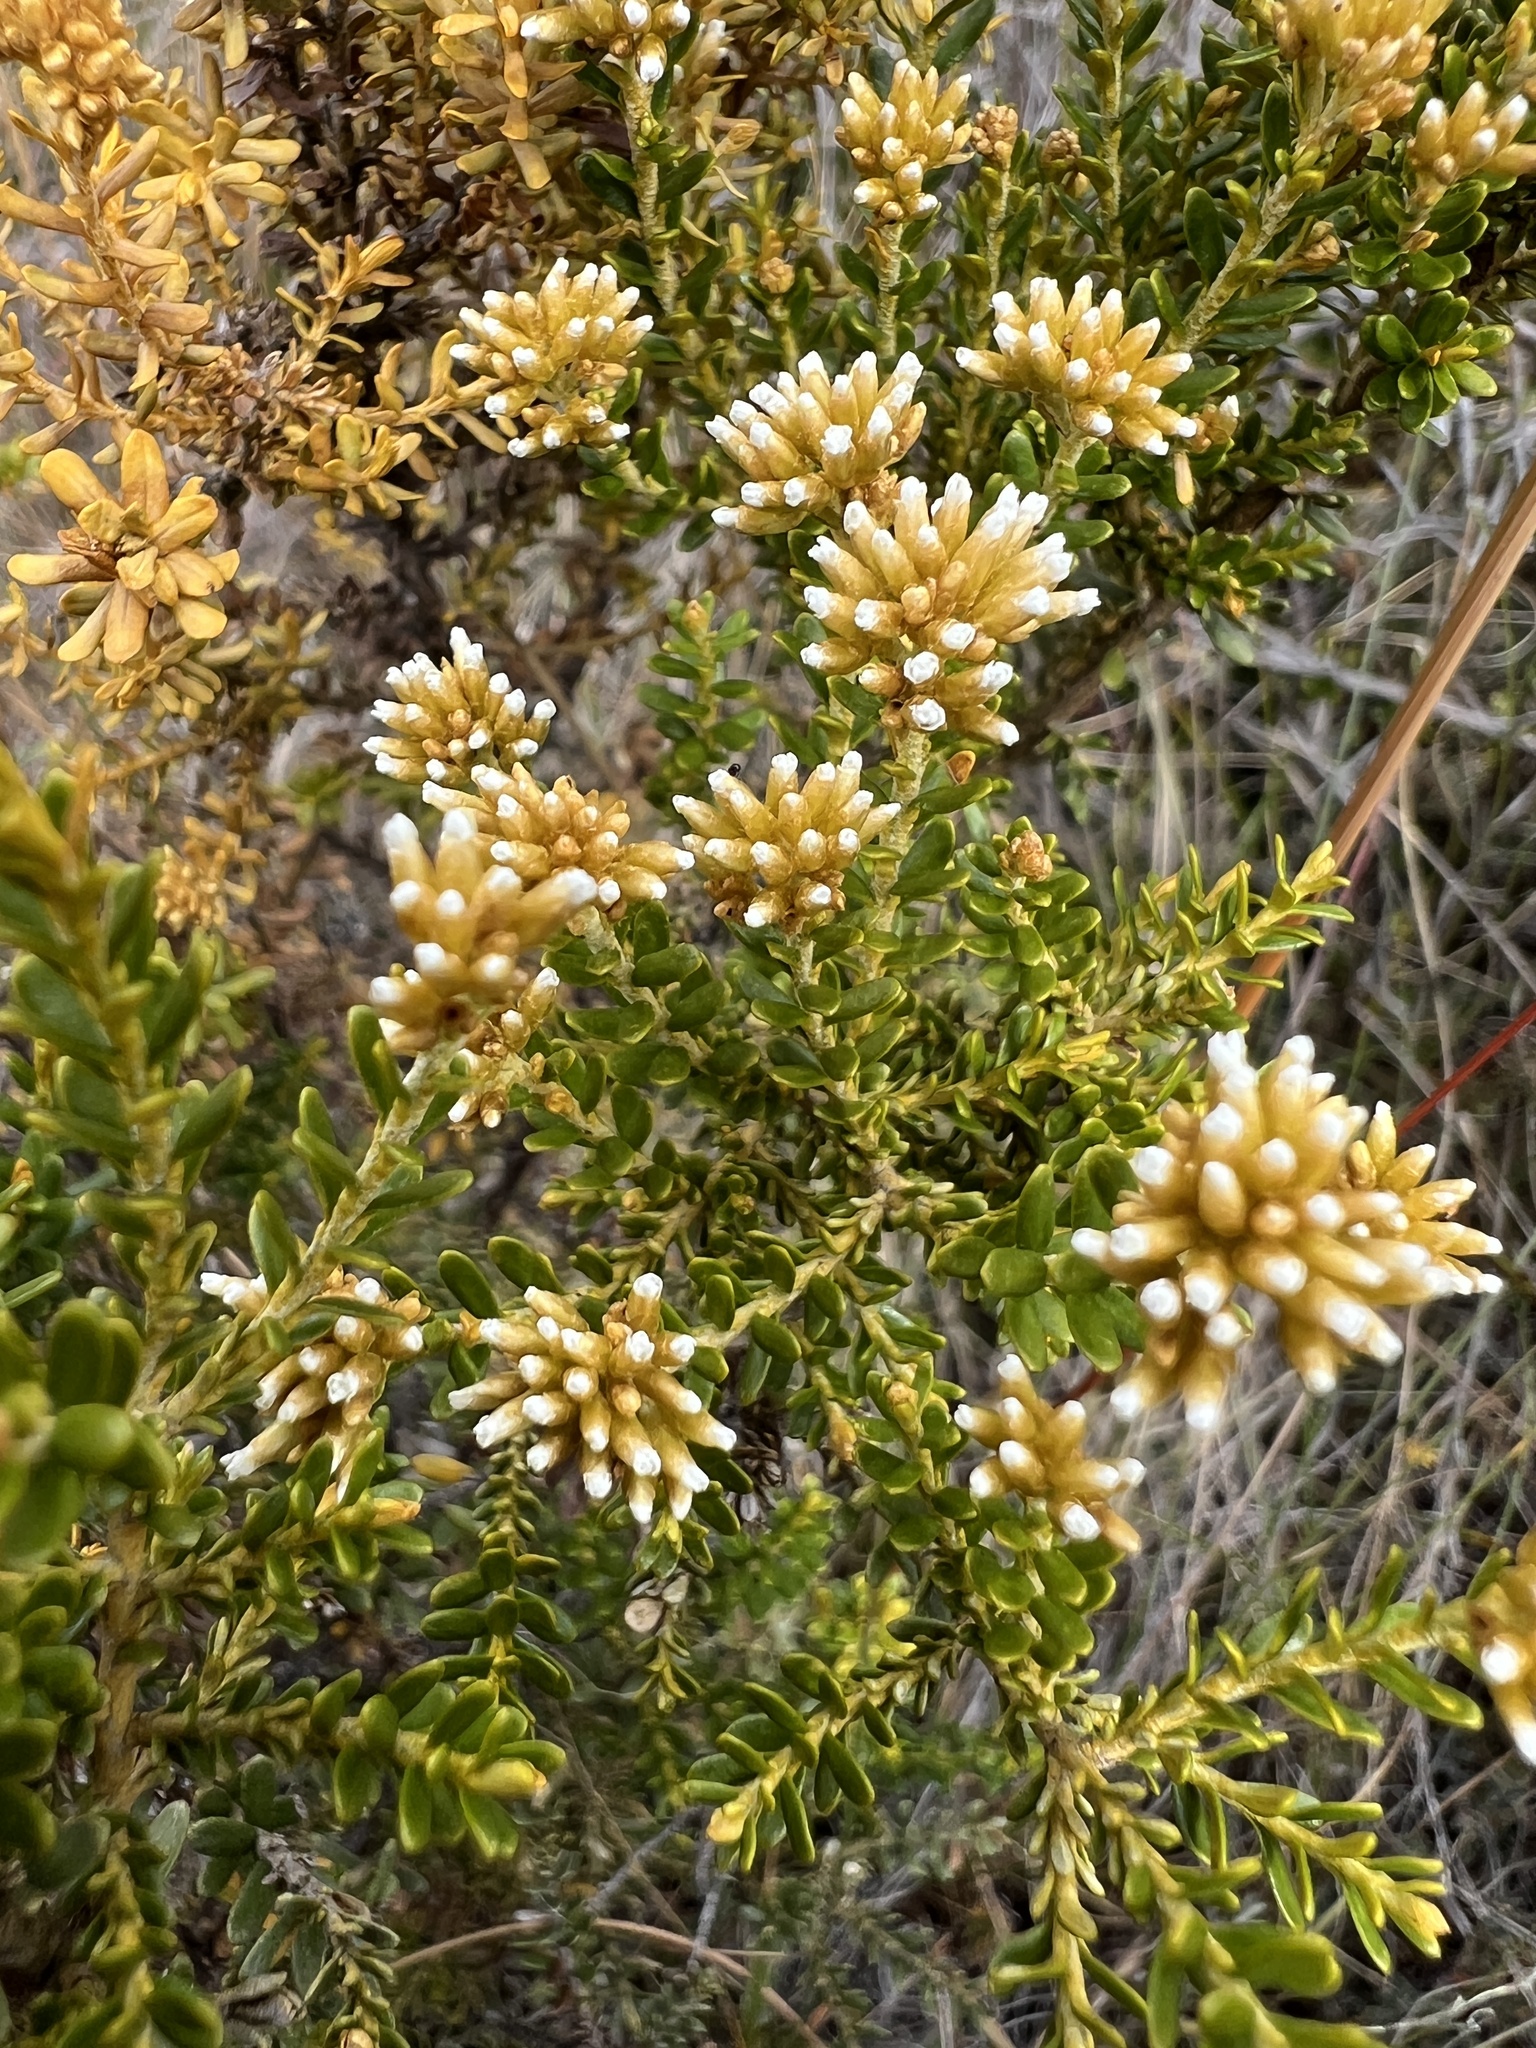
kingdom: Plantae
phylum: Tracheophyta
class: Magnoliopsida
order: Asterales
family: Asteraceae
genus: Ozothamnus
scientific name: Ozothamnus leptophyllus
